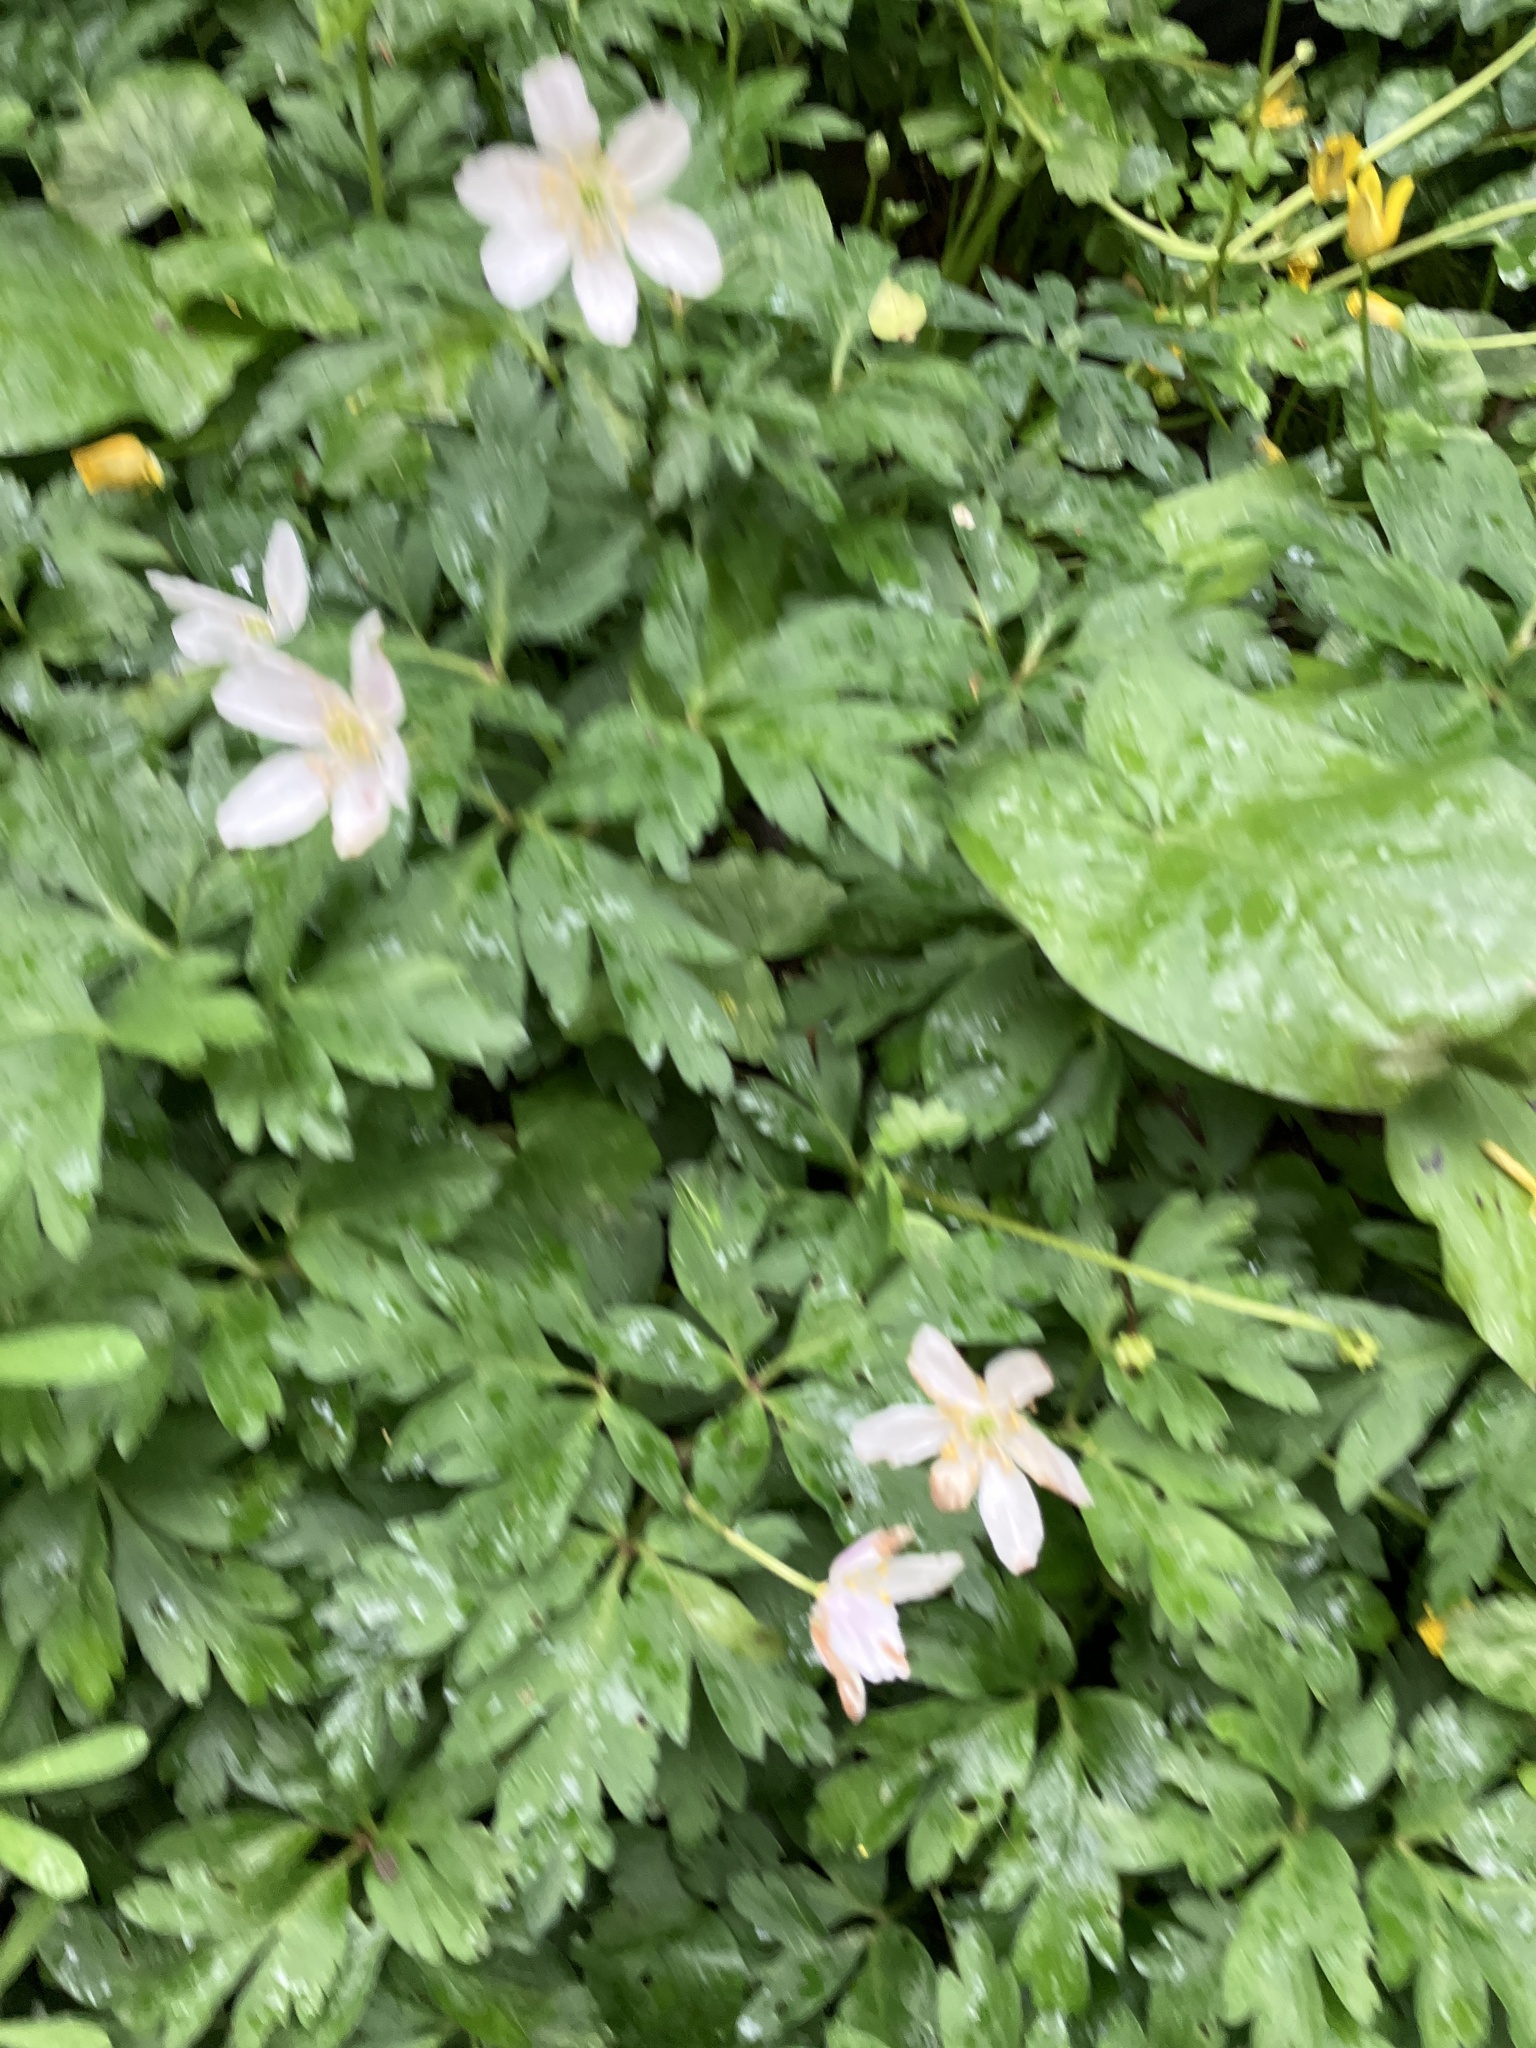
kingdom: Plantae
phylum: Tracheophyta
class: Magnoliopsida
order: Ranunculales
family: Ranunculaceae
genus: Anemone
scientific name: Anemone nemorosa
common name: Wood anemone
